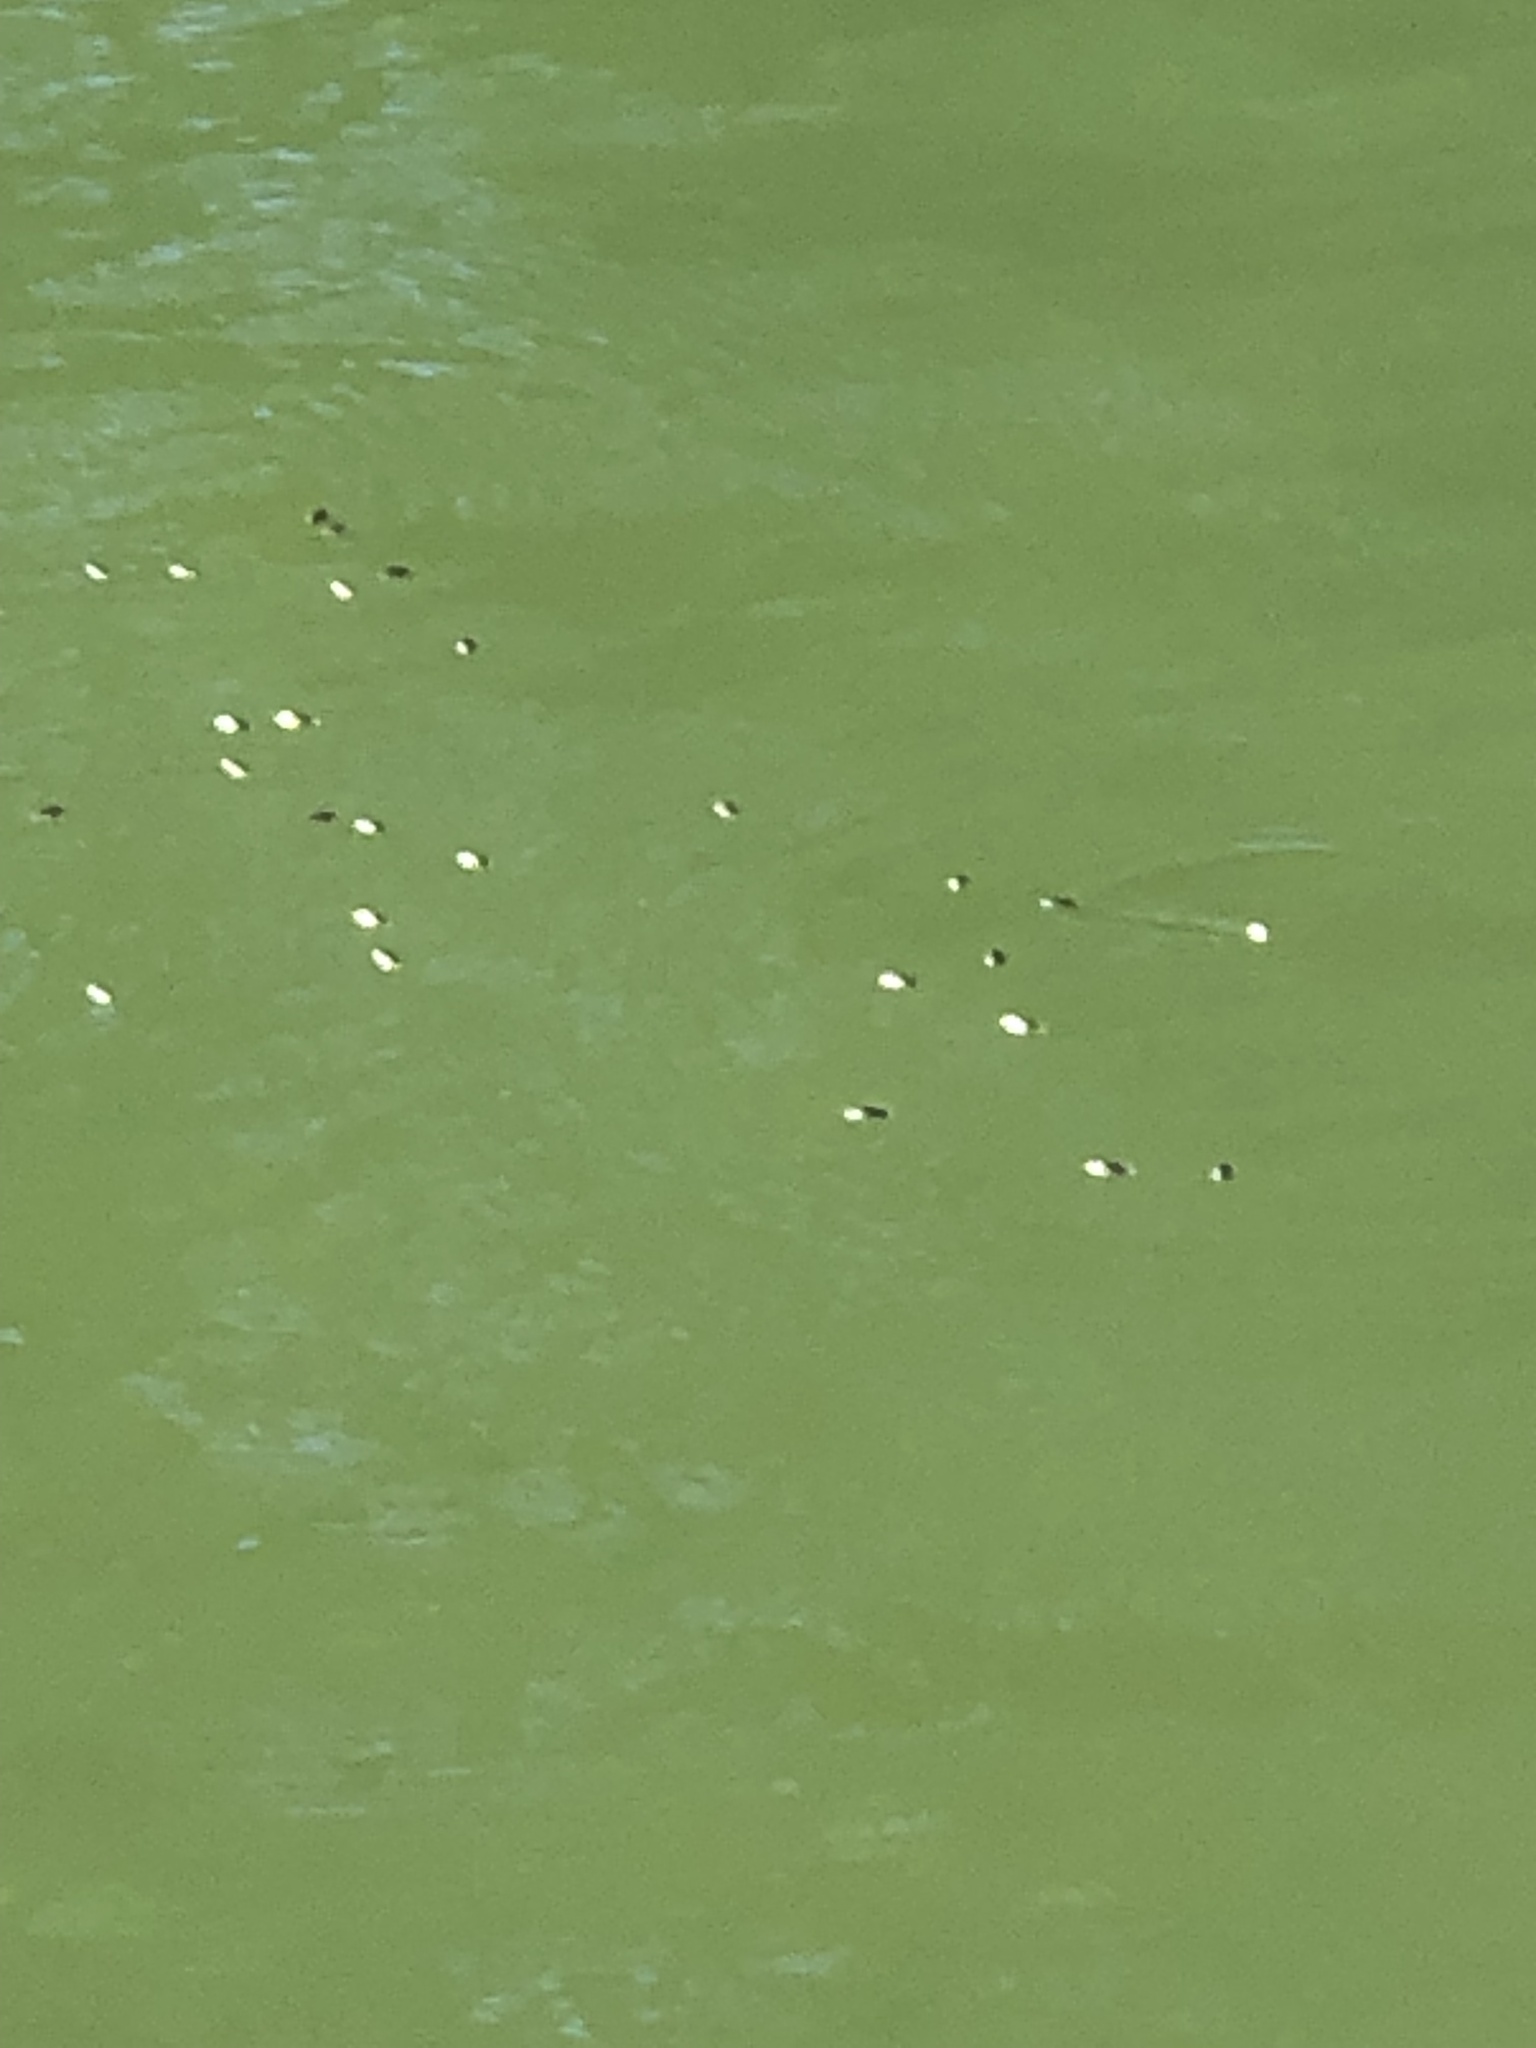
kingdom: Animalia
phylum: Arthropoda
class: Insecta
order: Coleoptera
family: Gyrinidae
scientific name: Gyrinidae
